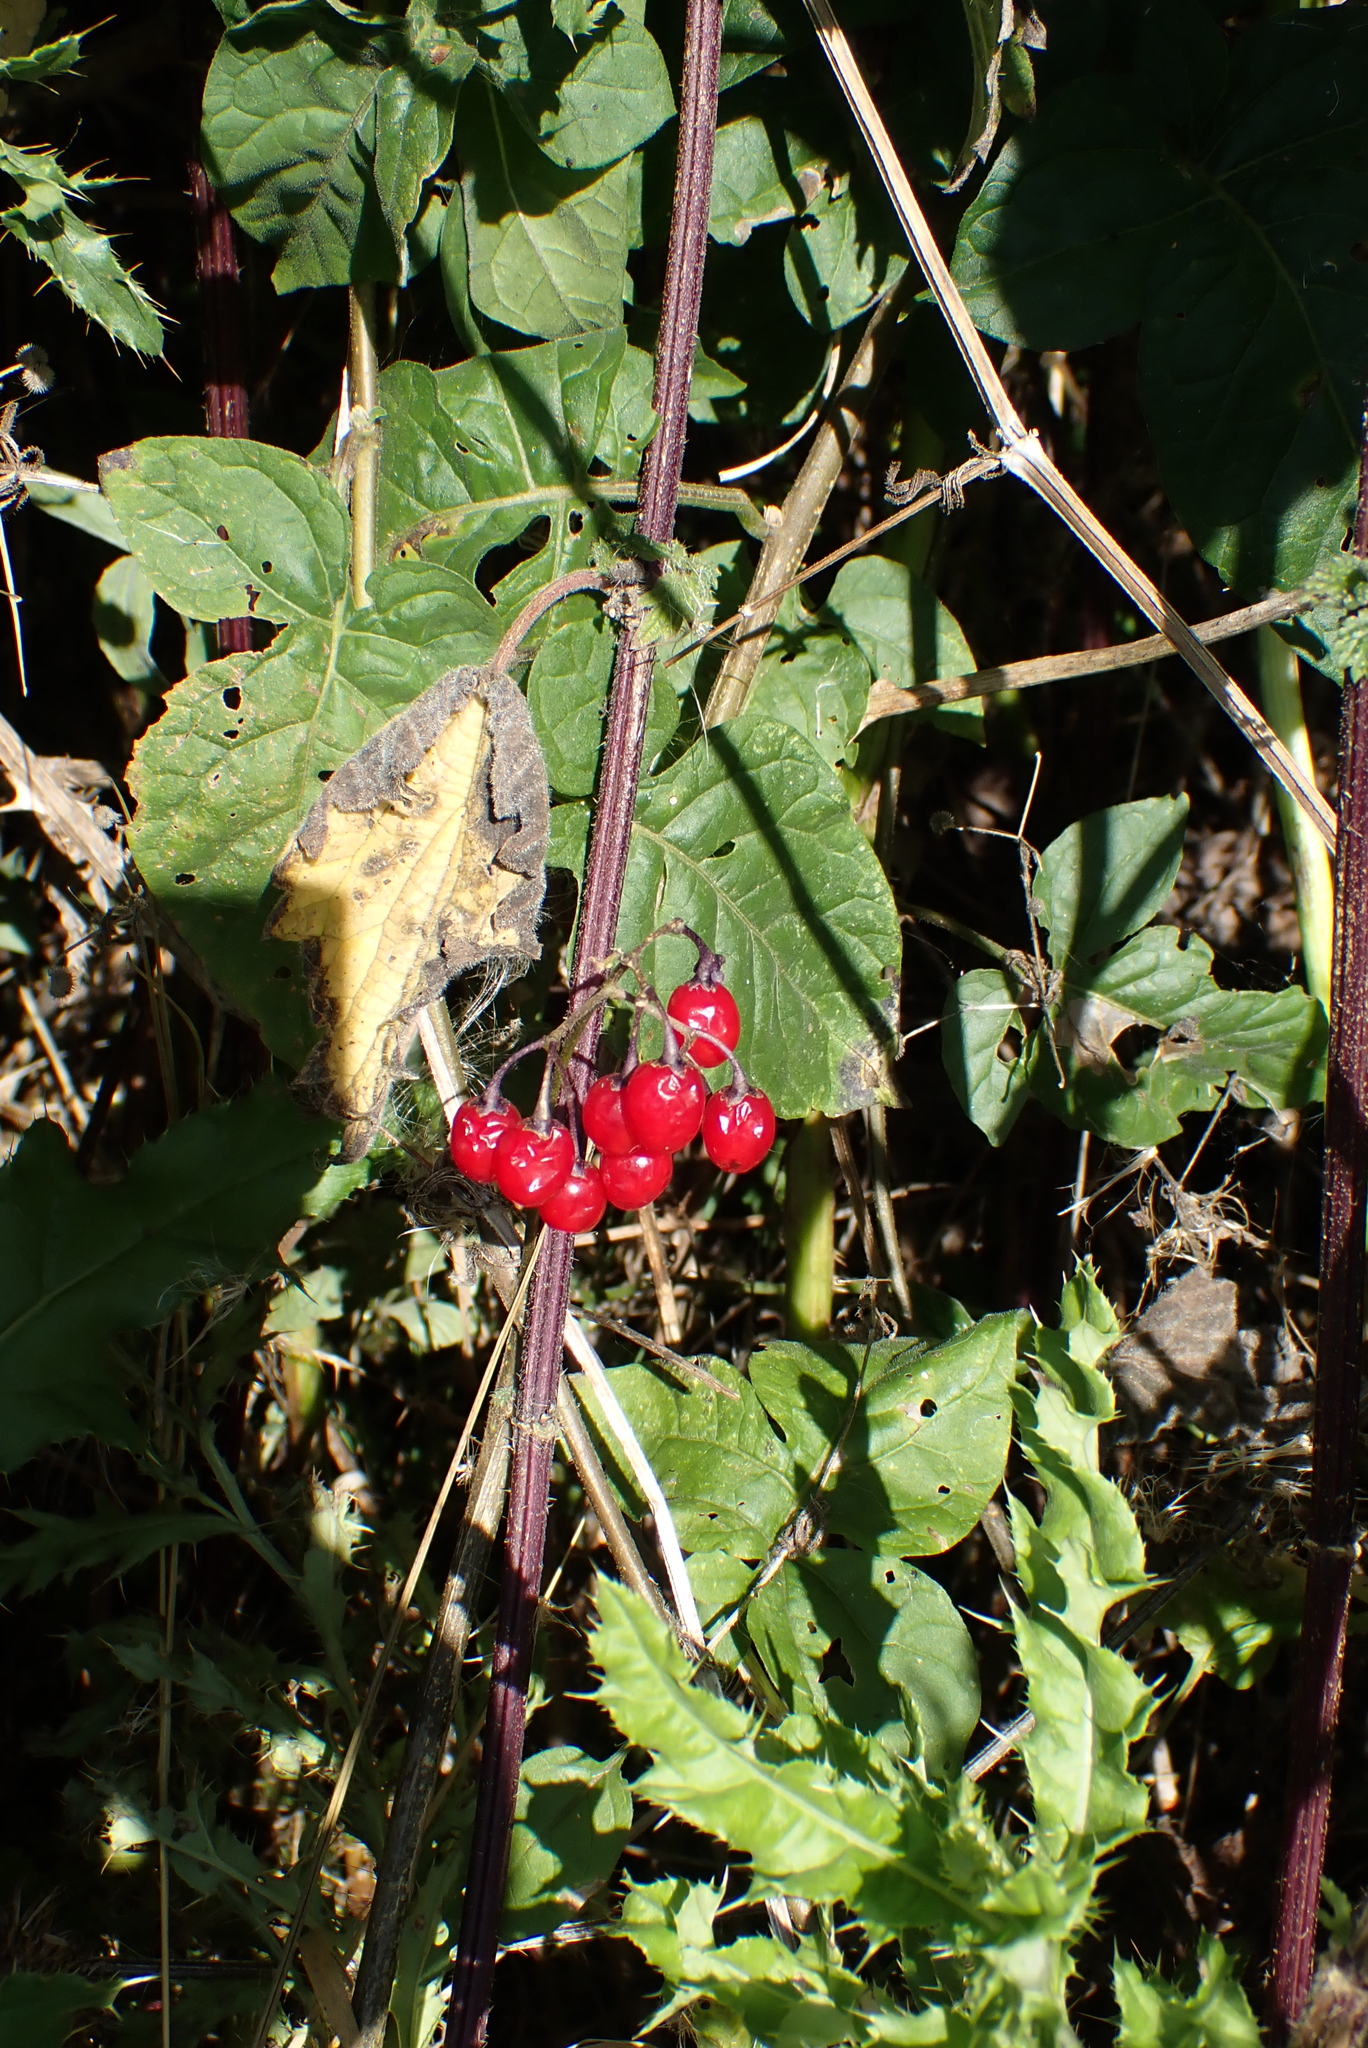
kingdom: Plantae
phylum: Tracheophyta
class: Magnoliopsida
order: Solanales
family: Solanaceae
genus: Solanum
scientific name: Solanum dulcamara
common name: Climbing nightshade
